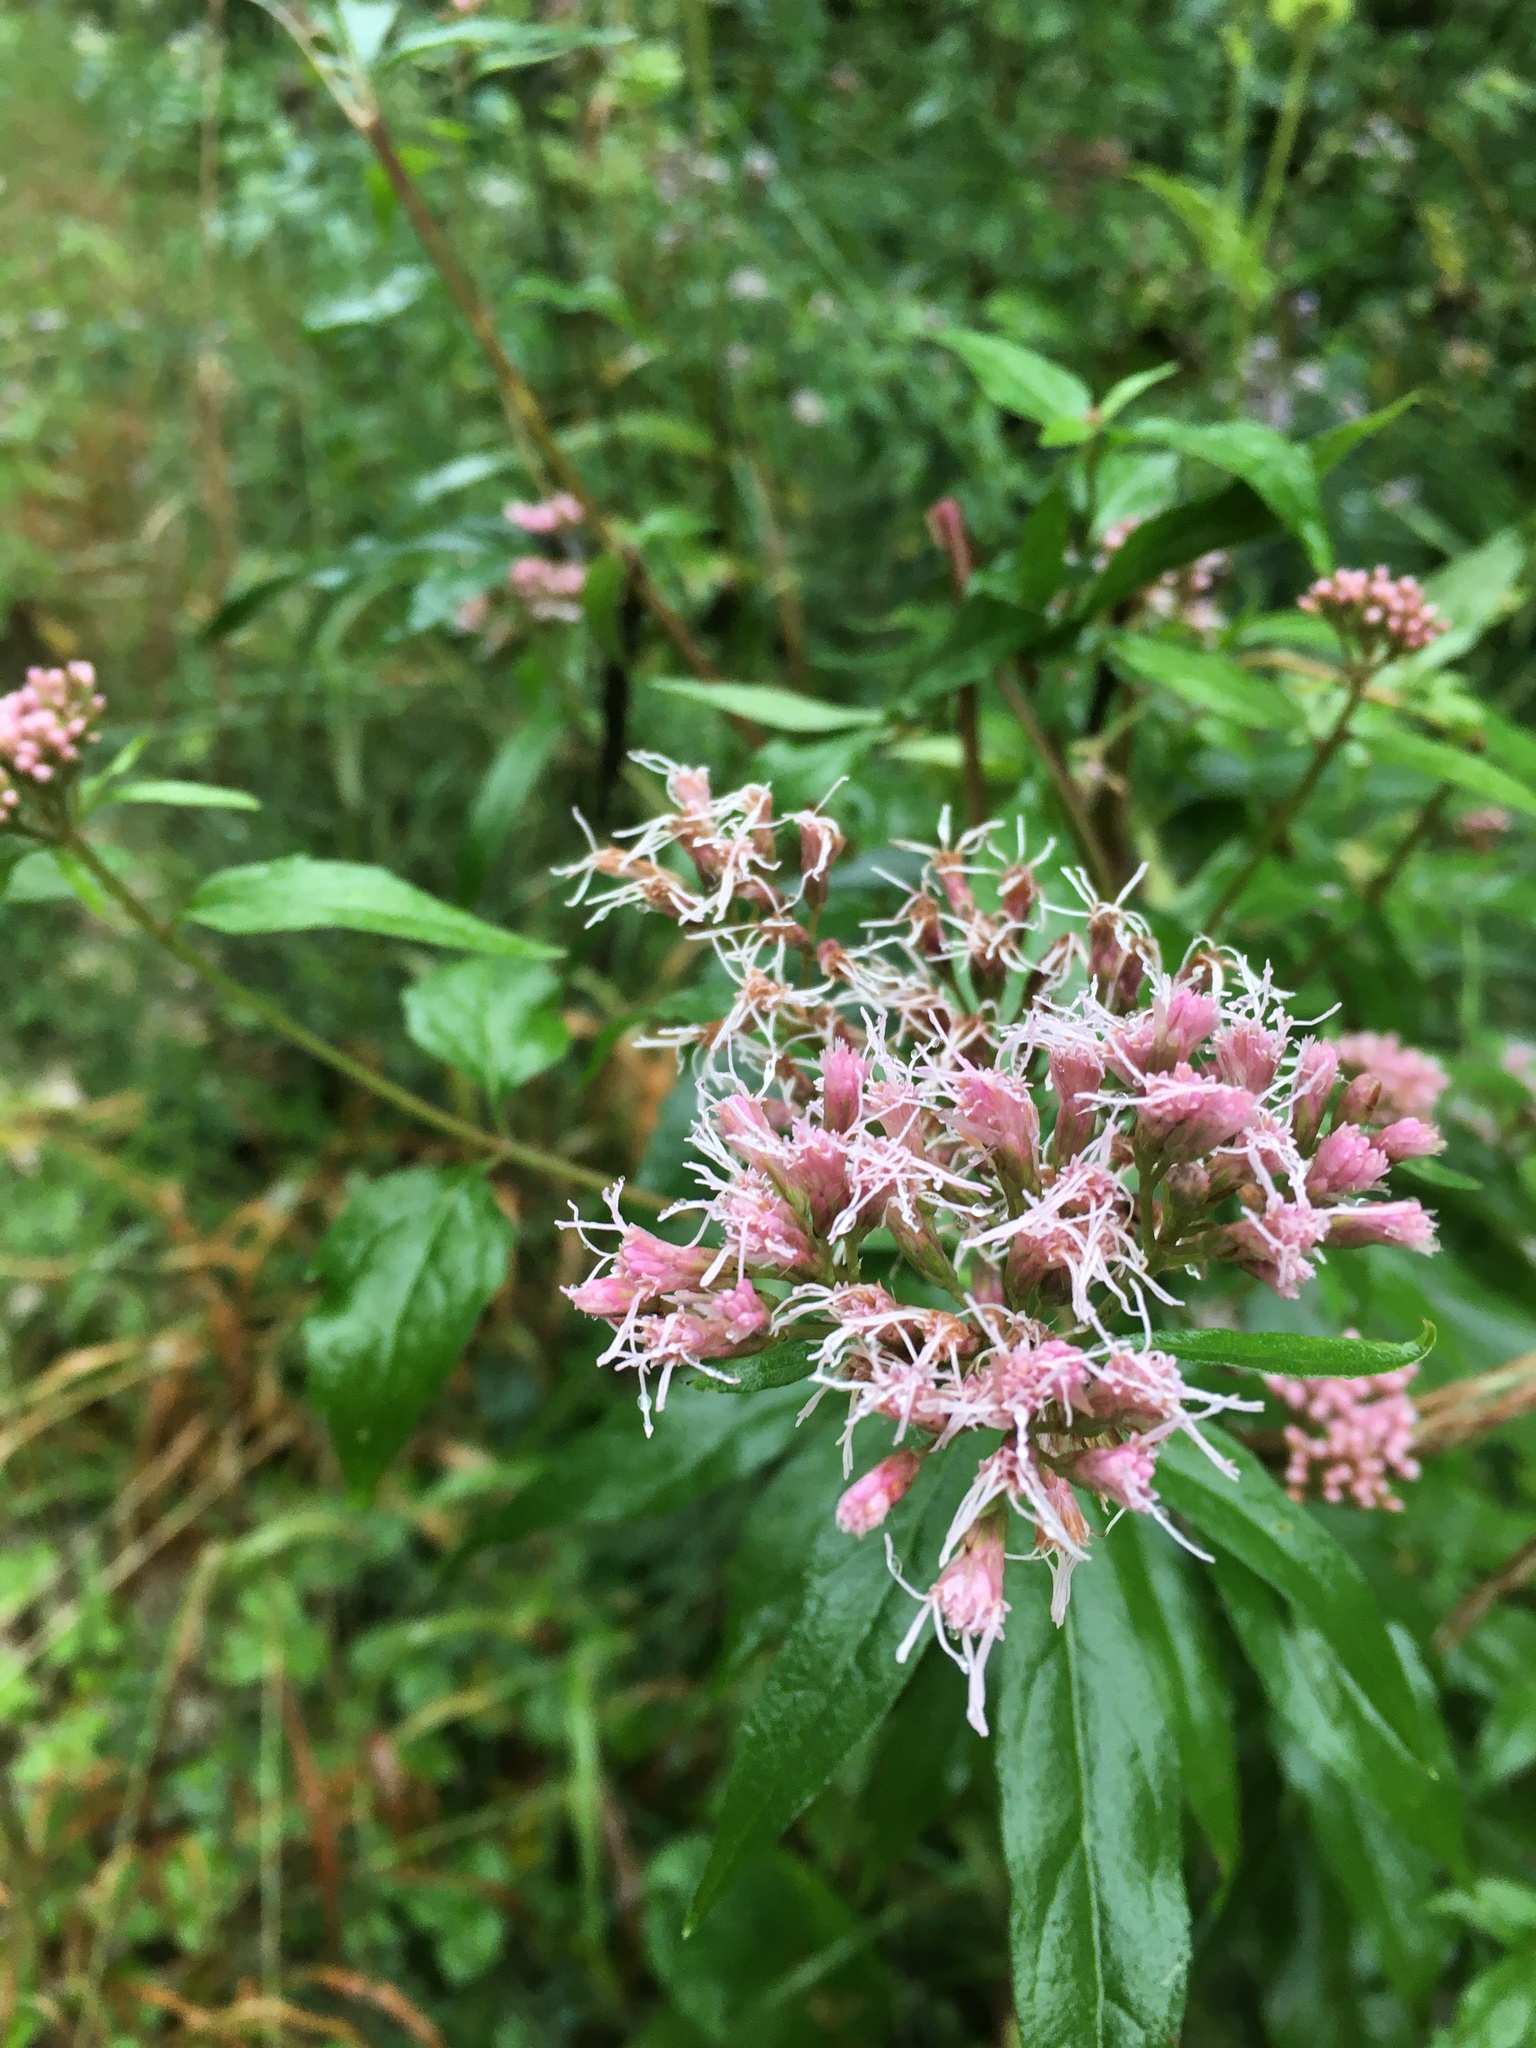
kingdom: Plantae
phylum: Tracheophyta
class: Magnoliopsida
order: Asterales
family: Asteraceae
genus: Eupatorium
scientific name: Eupatorium cannabinum
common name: Hemp-agrimony
